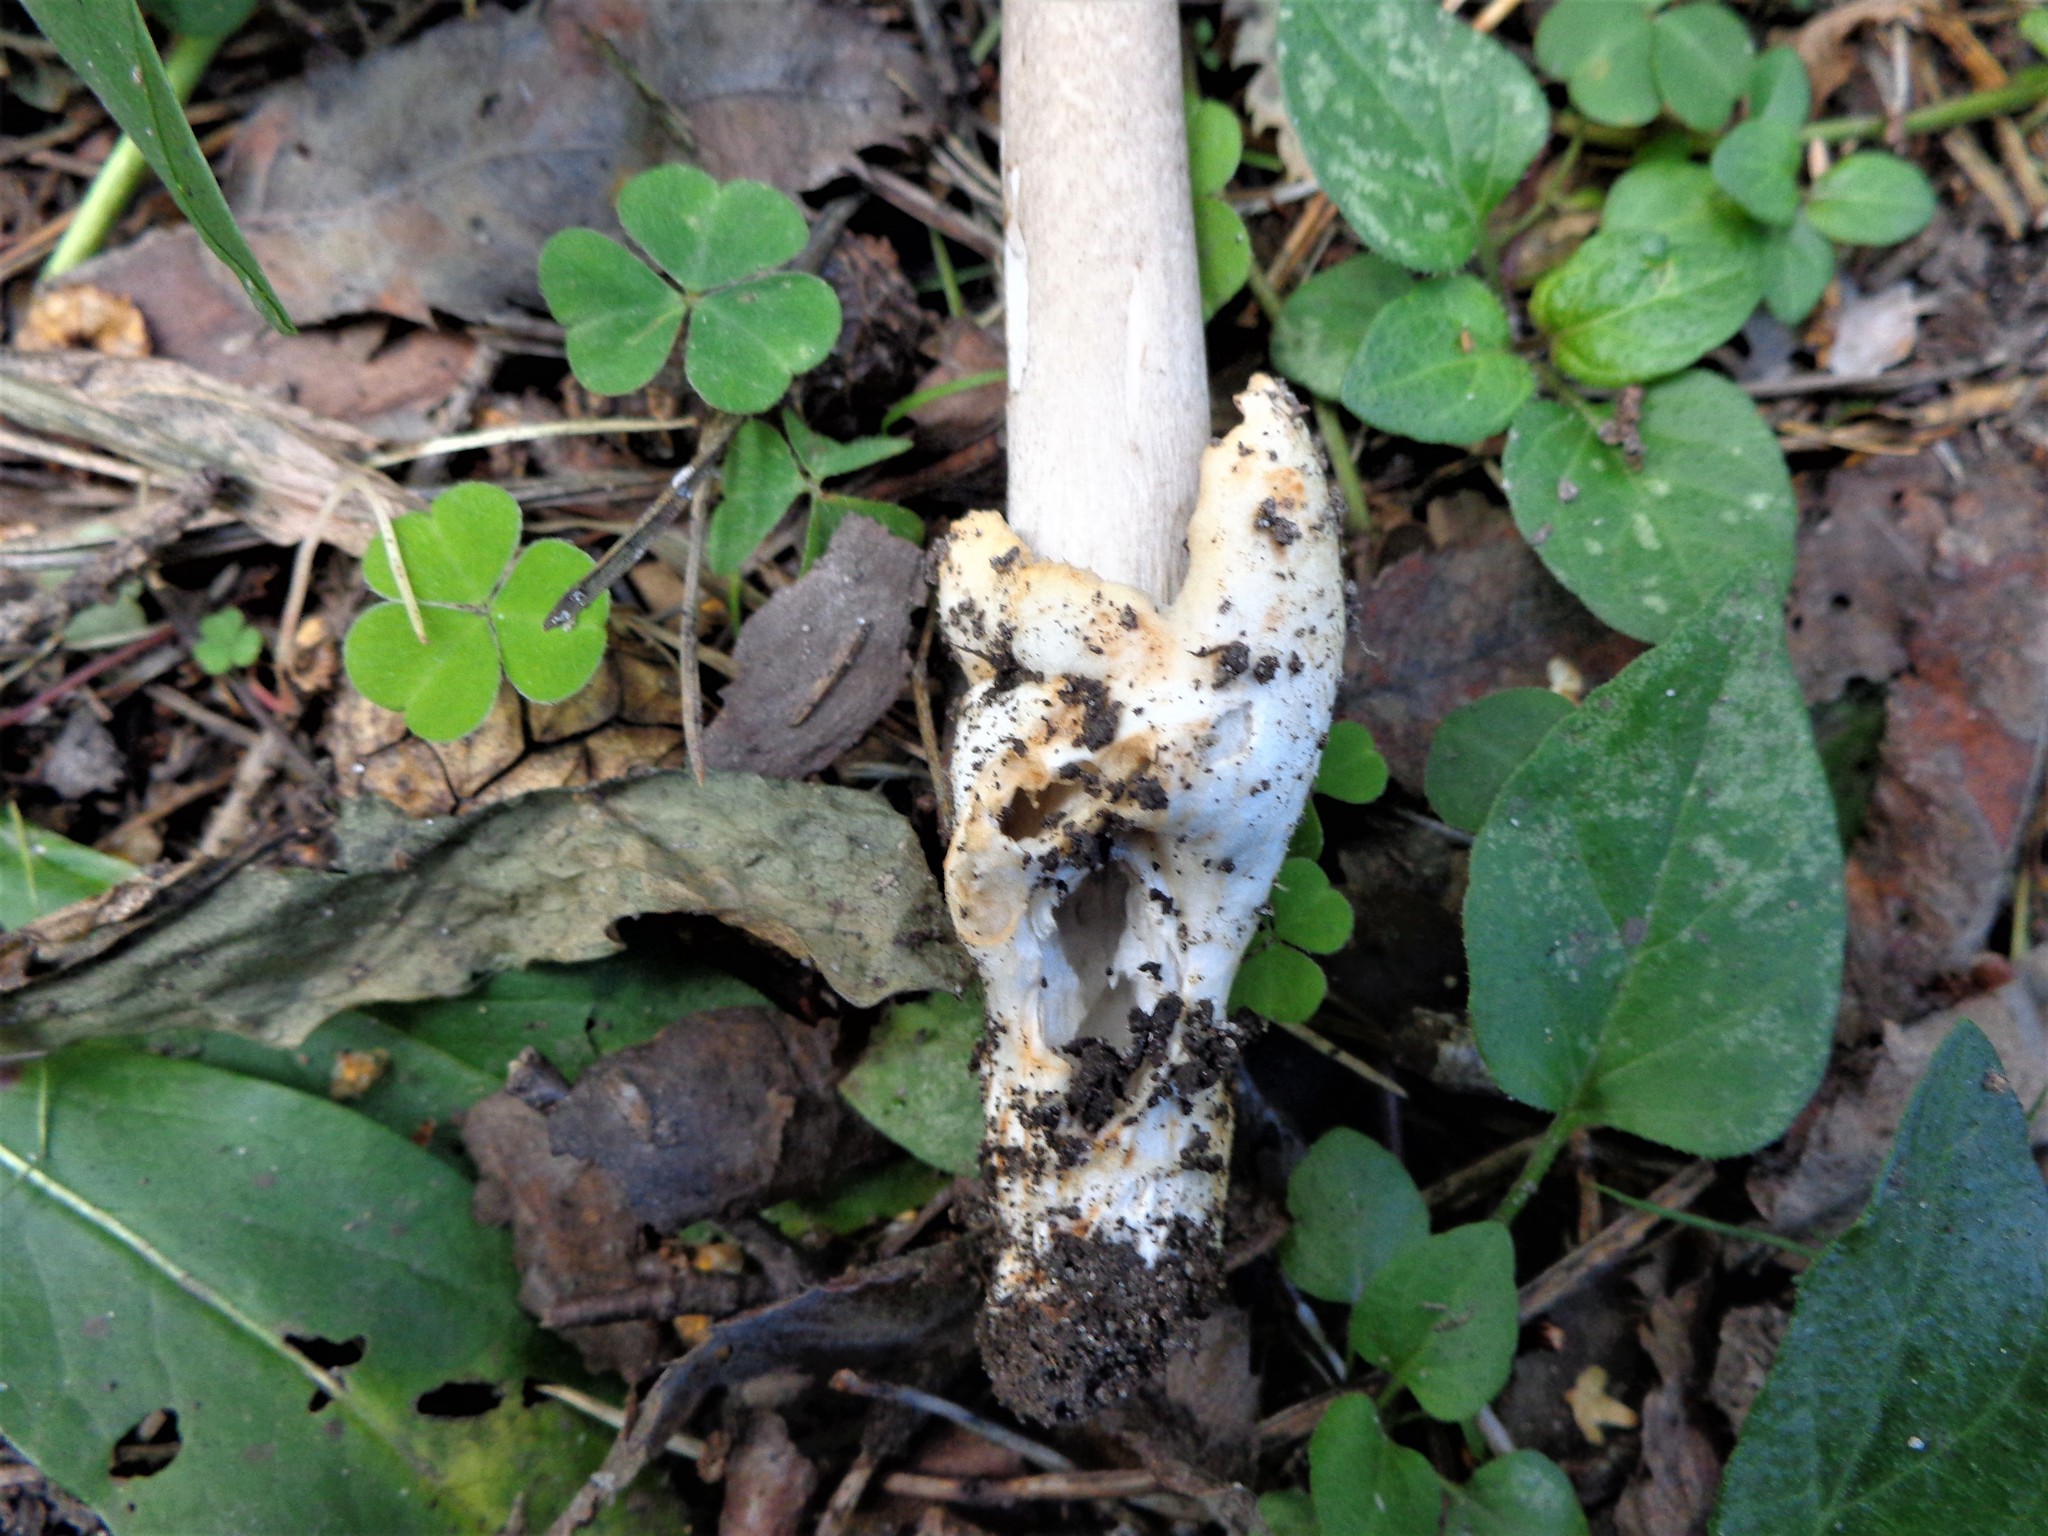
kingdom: Fungi
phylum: Basidiomycota
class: Agaricomycetes
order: Agaricales
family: Amanitaceae
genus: Amanita
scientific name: Amanita vaginata
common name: Grisette
